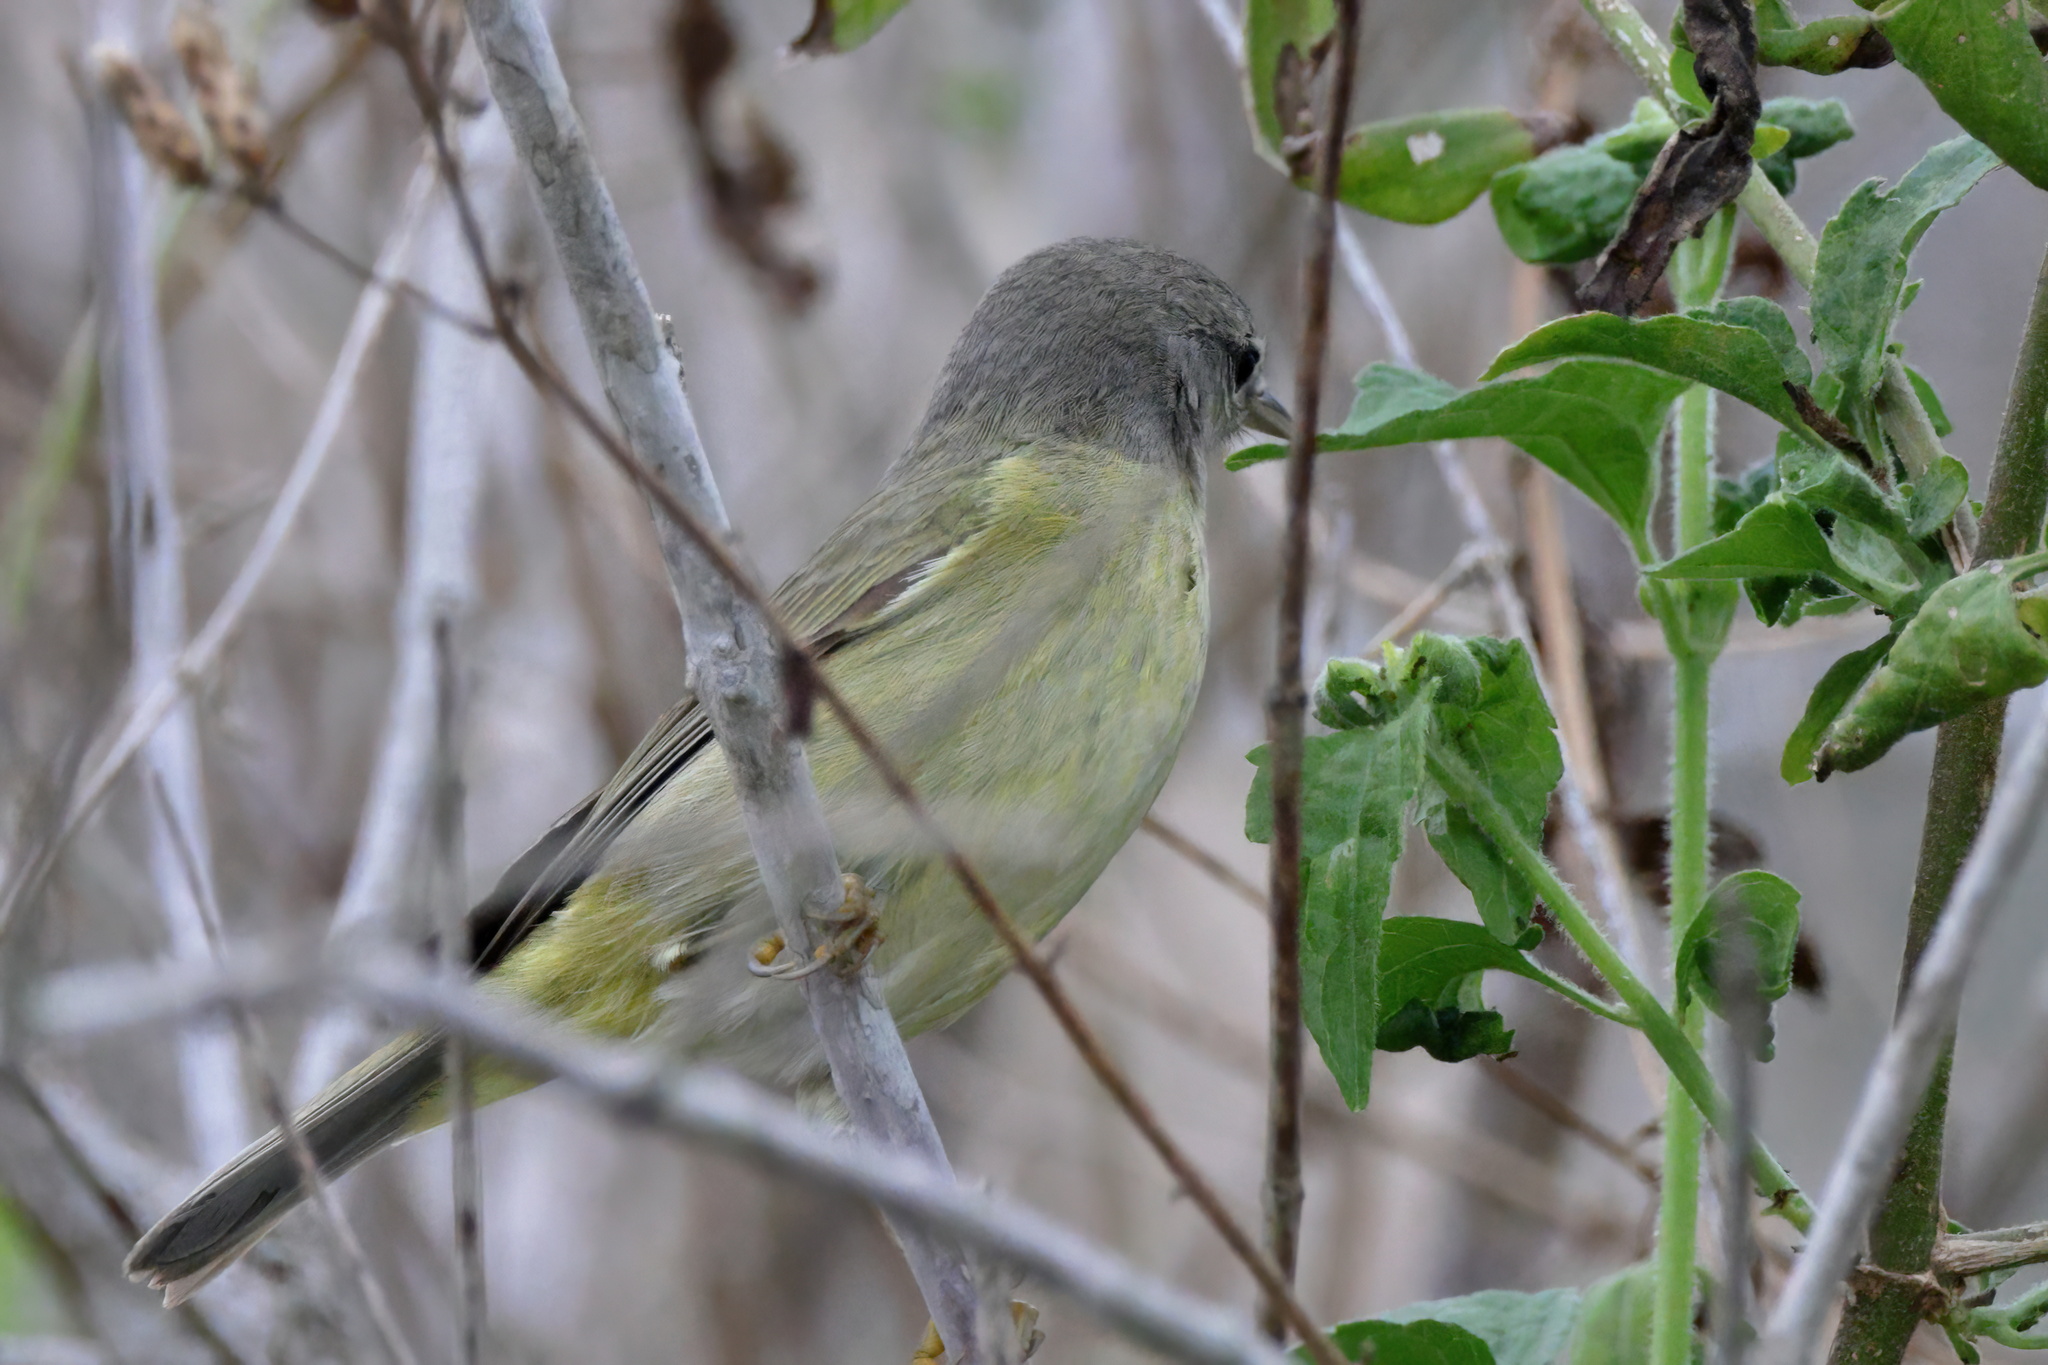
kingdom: Animalia
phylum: Chordata
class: Aves
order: Passeriformes
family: Parulidae
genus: Leiothlypis
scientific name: Leiothlypis celata
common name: Orange-crowned warbler
